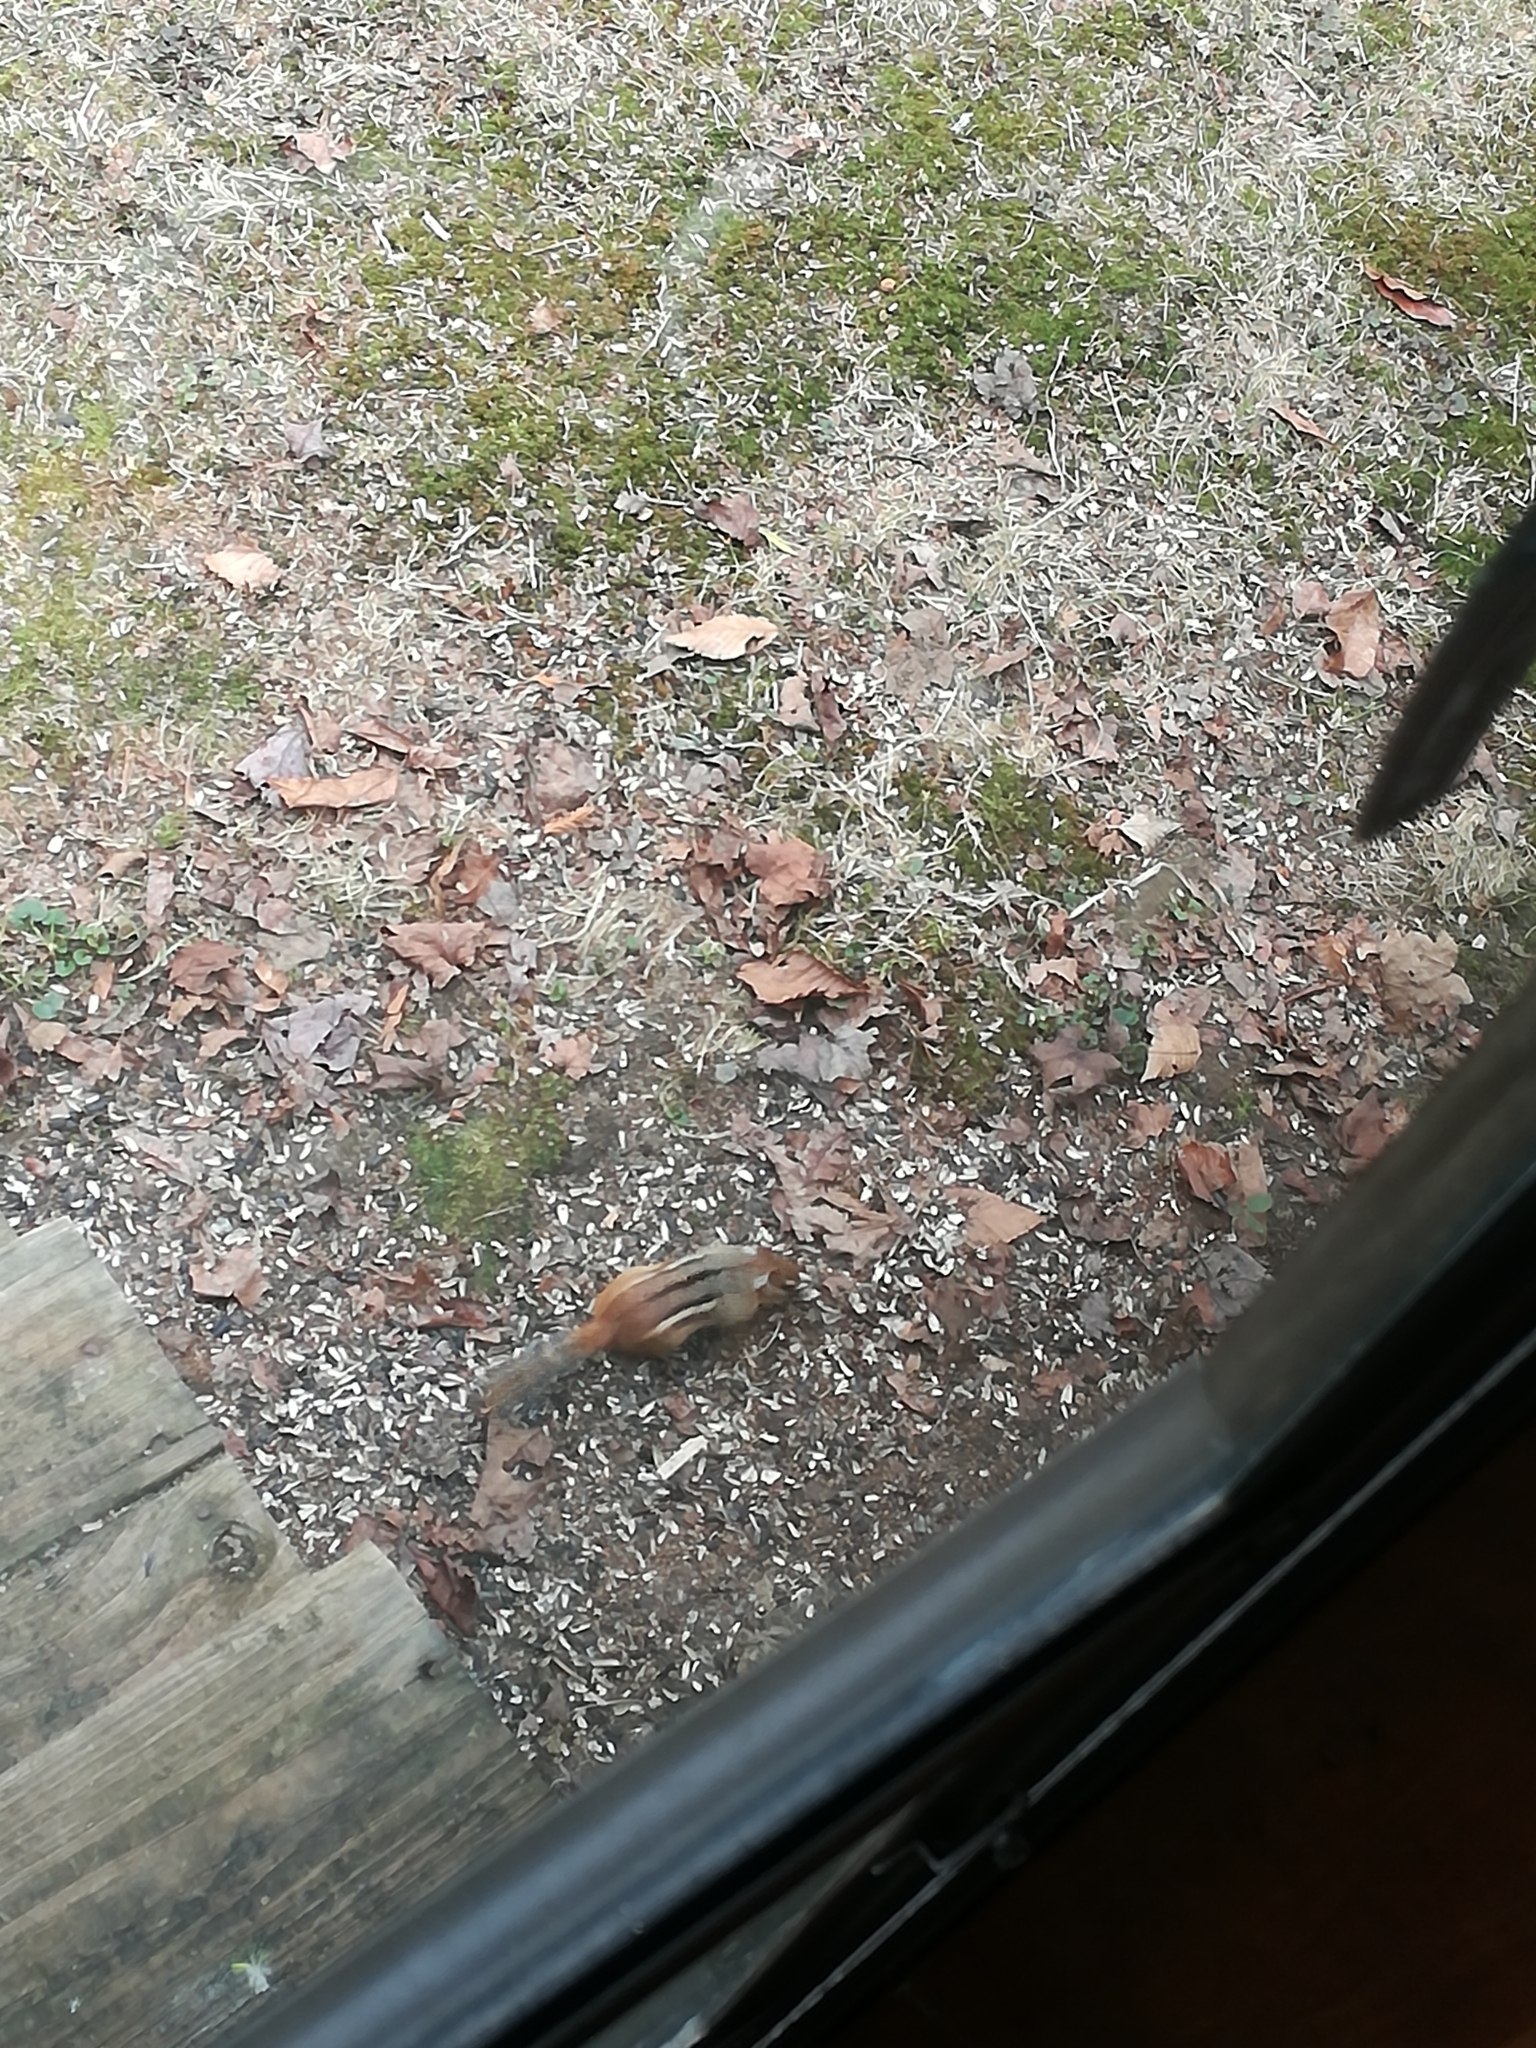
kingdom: Animalia
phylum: Chordata
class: Mammalia
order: Rodentia
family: Sciuridae
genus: Tamias
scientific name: Tamias striatus
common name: Eastern chipmunk
